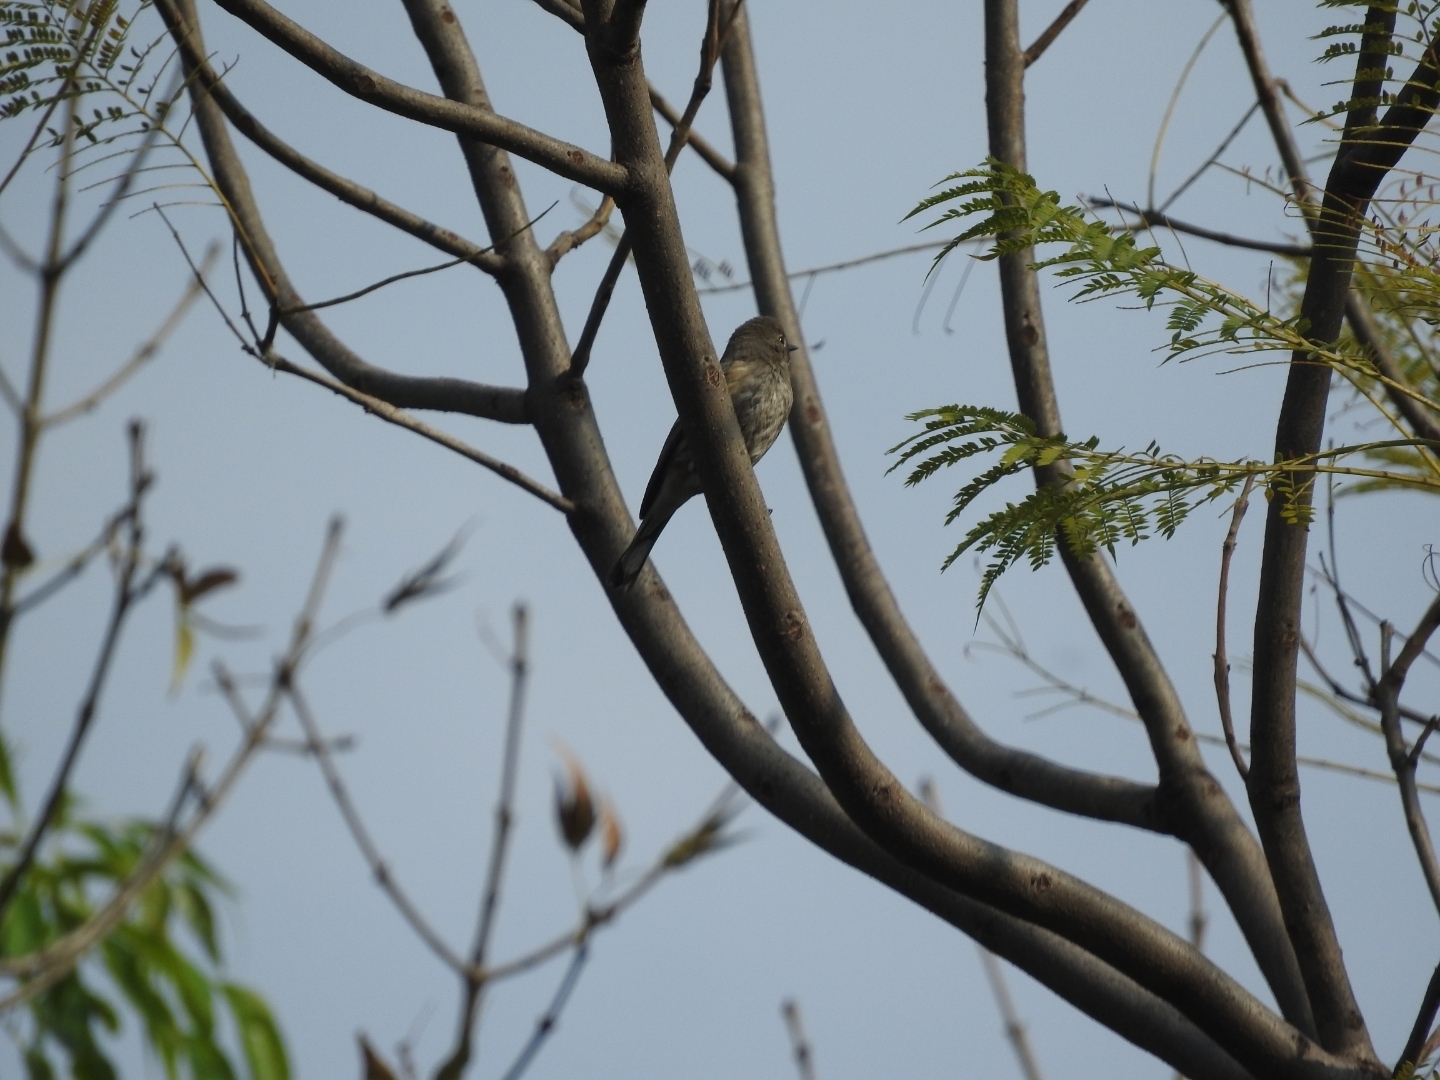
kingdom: Animalia
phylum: Chordata
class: Aves
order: Passeriformes
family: Parulidae
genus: Setophaga
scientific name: Setophaga auduboni
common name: Audubon's warbler
